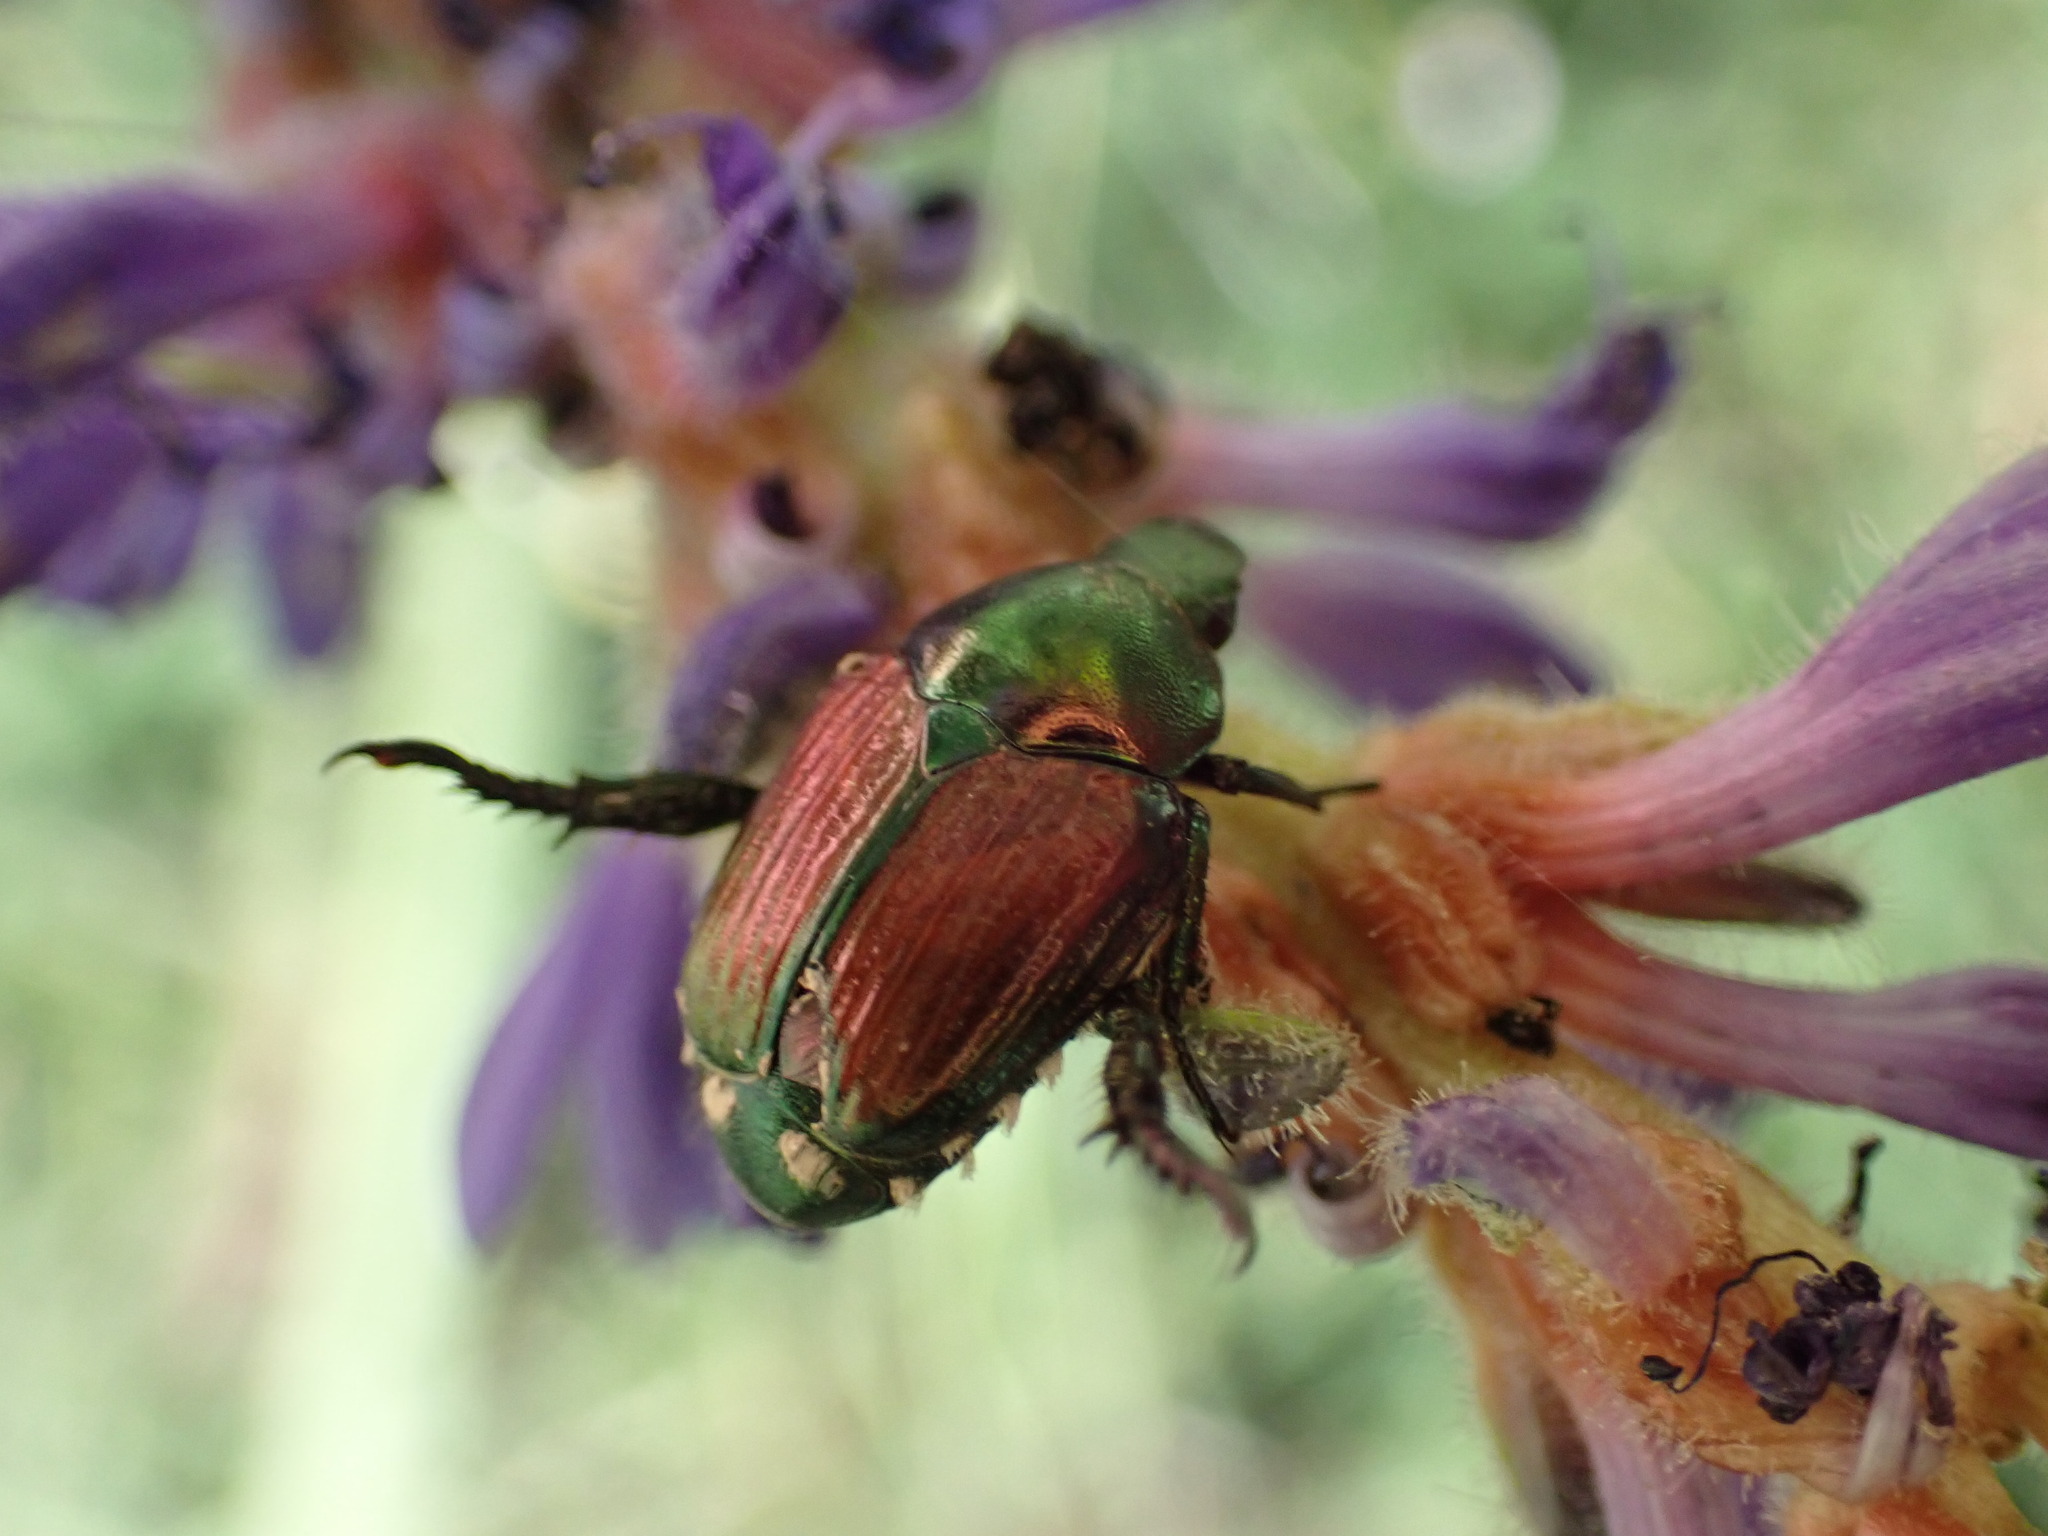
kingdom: Animalia
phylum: Arthropoda
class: Insecta
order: Coleoptera
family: Scarabaeidae
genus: Popillia
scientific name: Popillia japonica
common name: Japanese beetle
